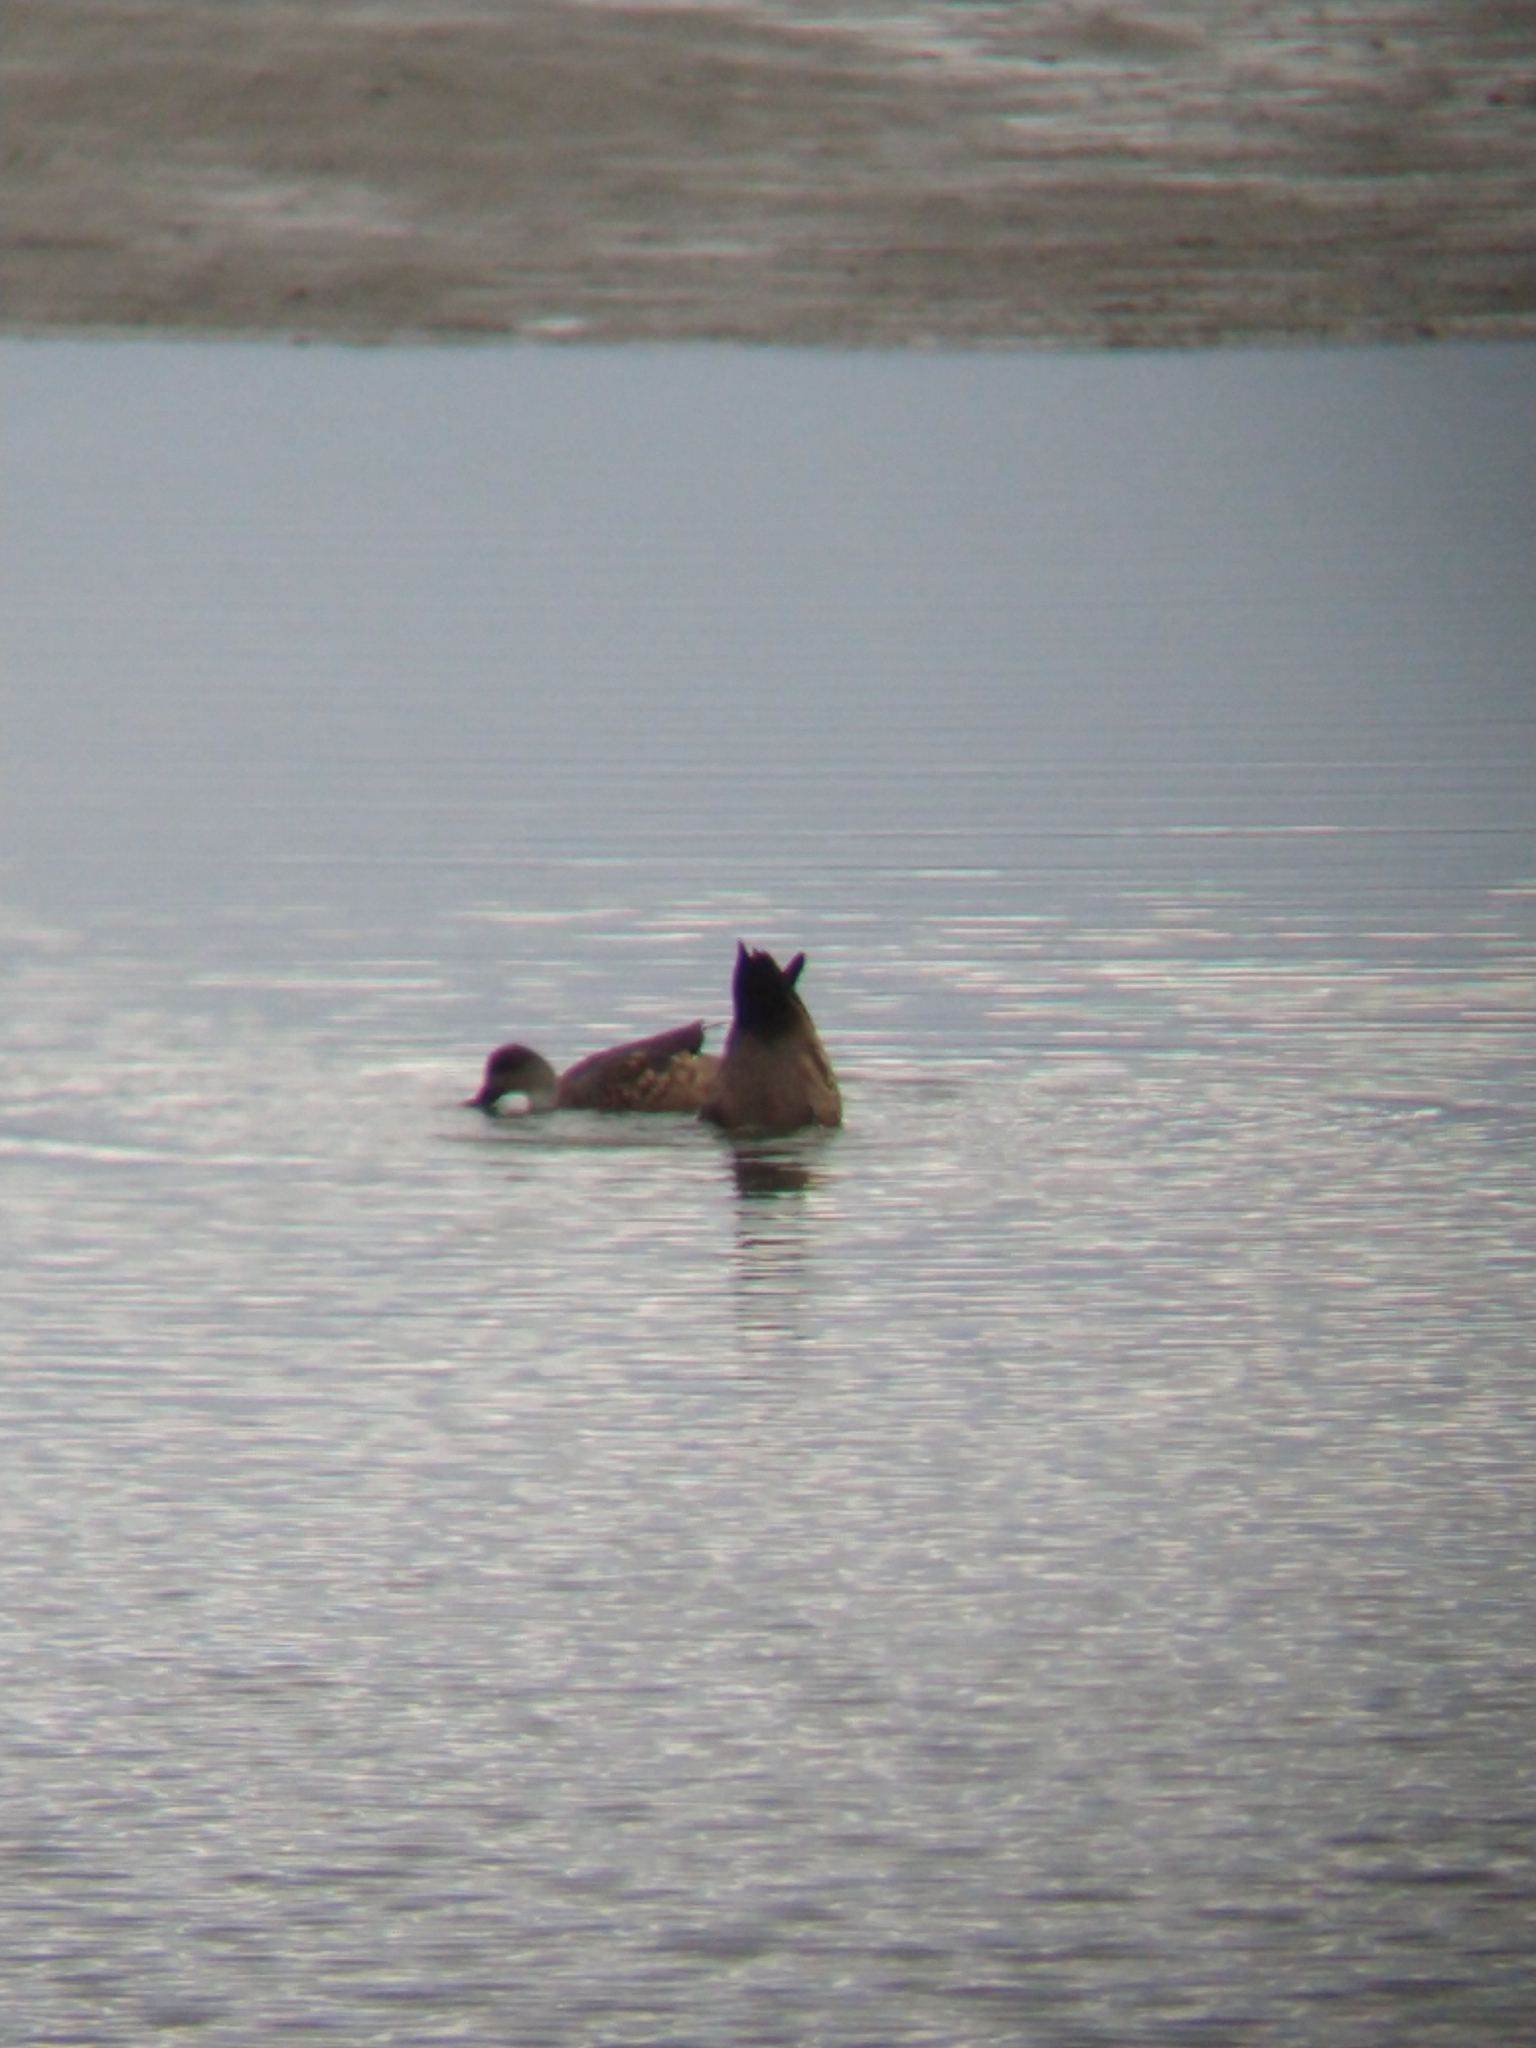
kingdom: Animalia
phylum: Chordata
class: Aves
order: Anseriformes
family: Anatidae
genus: Lophonetta
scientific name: Lophonetta specularioides
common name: Crested duck
